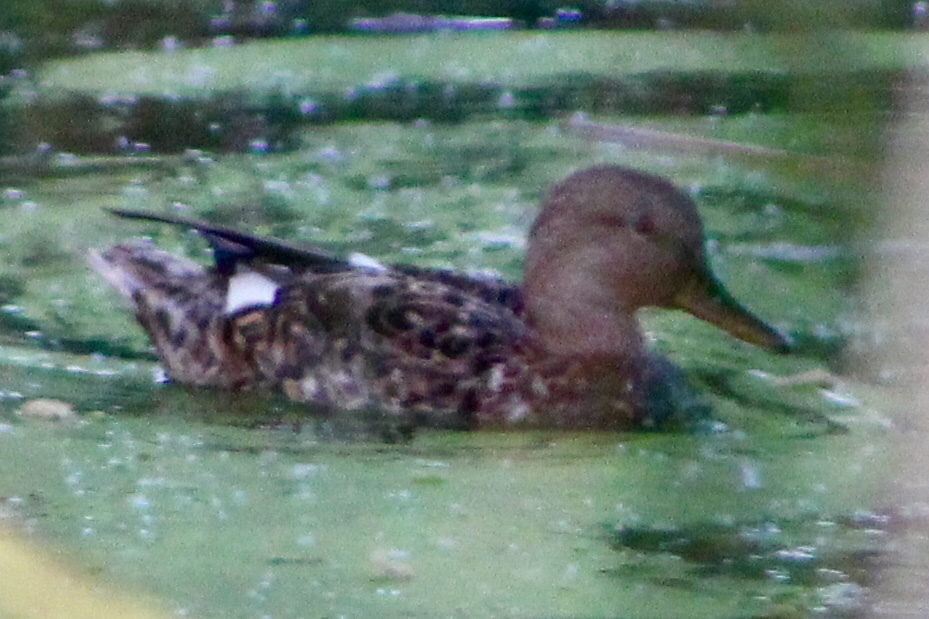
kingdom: Animalia
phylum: Chordata
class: Aves
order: Anseriformes
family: Anatidae
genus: Anas
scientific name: Anas platyrhynchos
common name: Mallard
